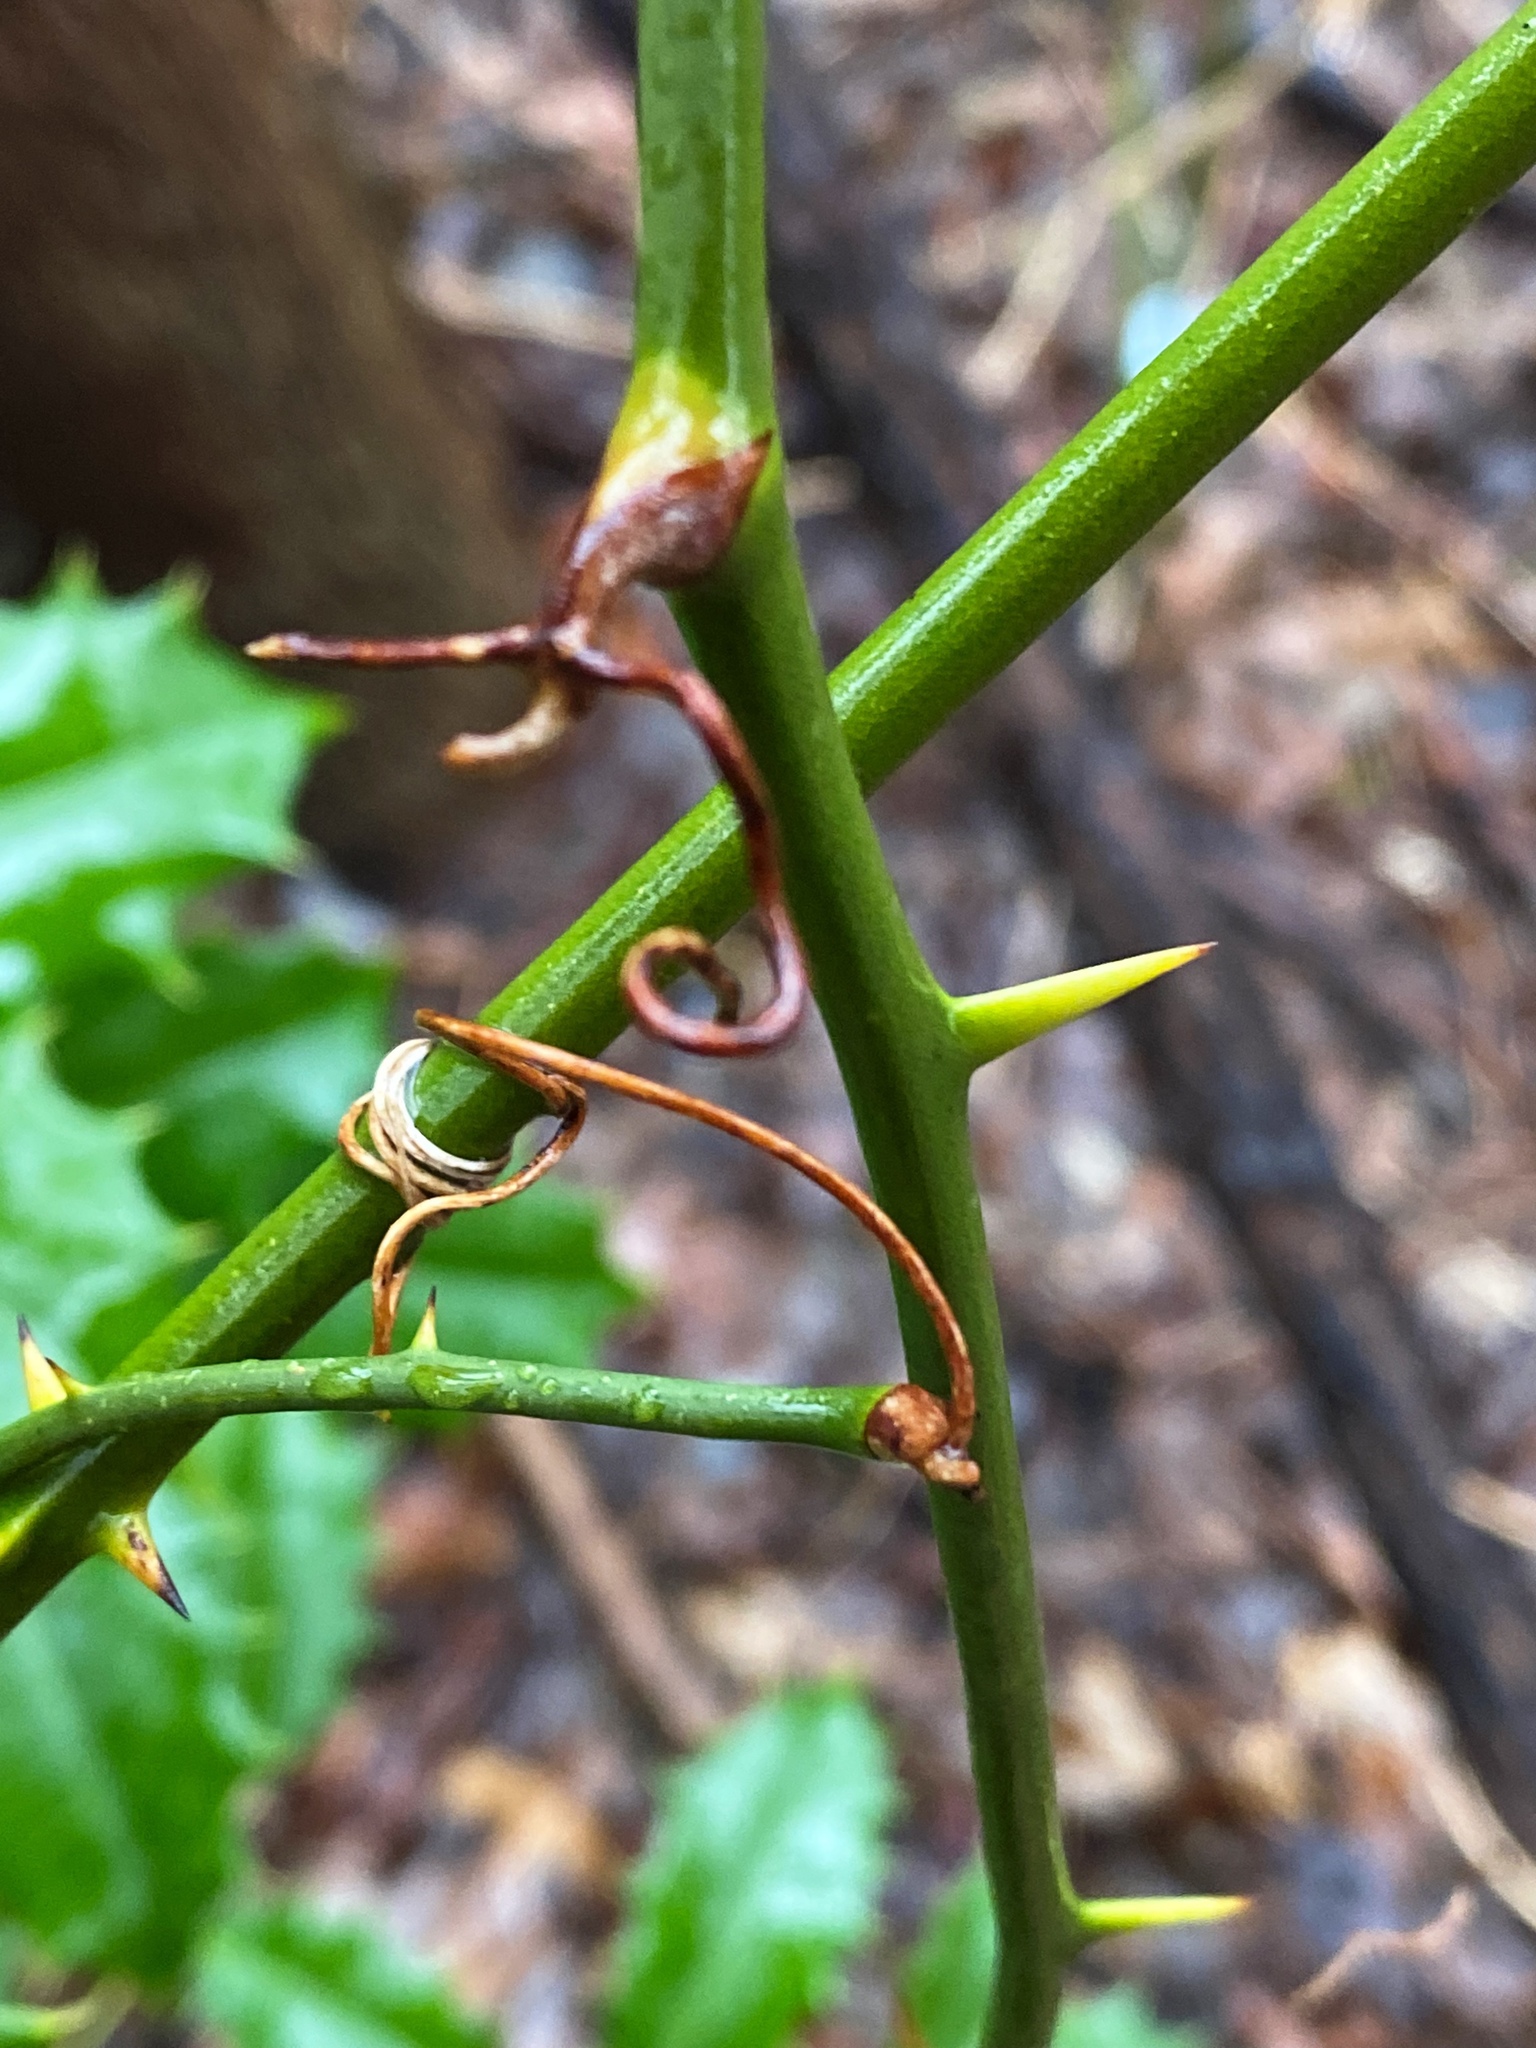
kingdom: Plantae
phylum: Tracheophyta
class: Liliopsida
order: Liliales
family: Smilacaceae
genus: Smilax
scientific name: Smilax rotundifolia
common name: Bullbriar
